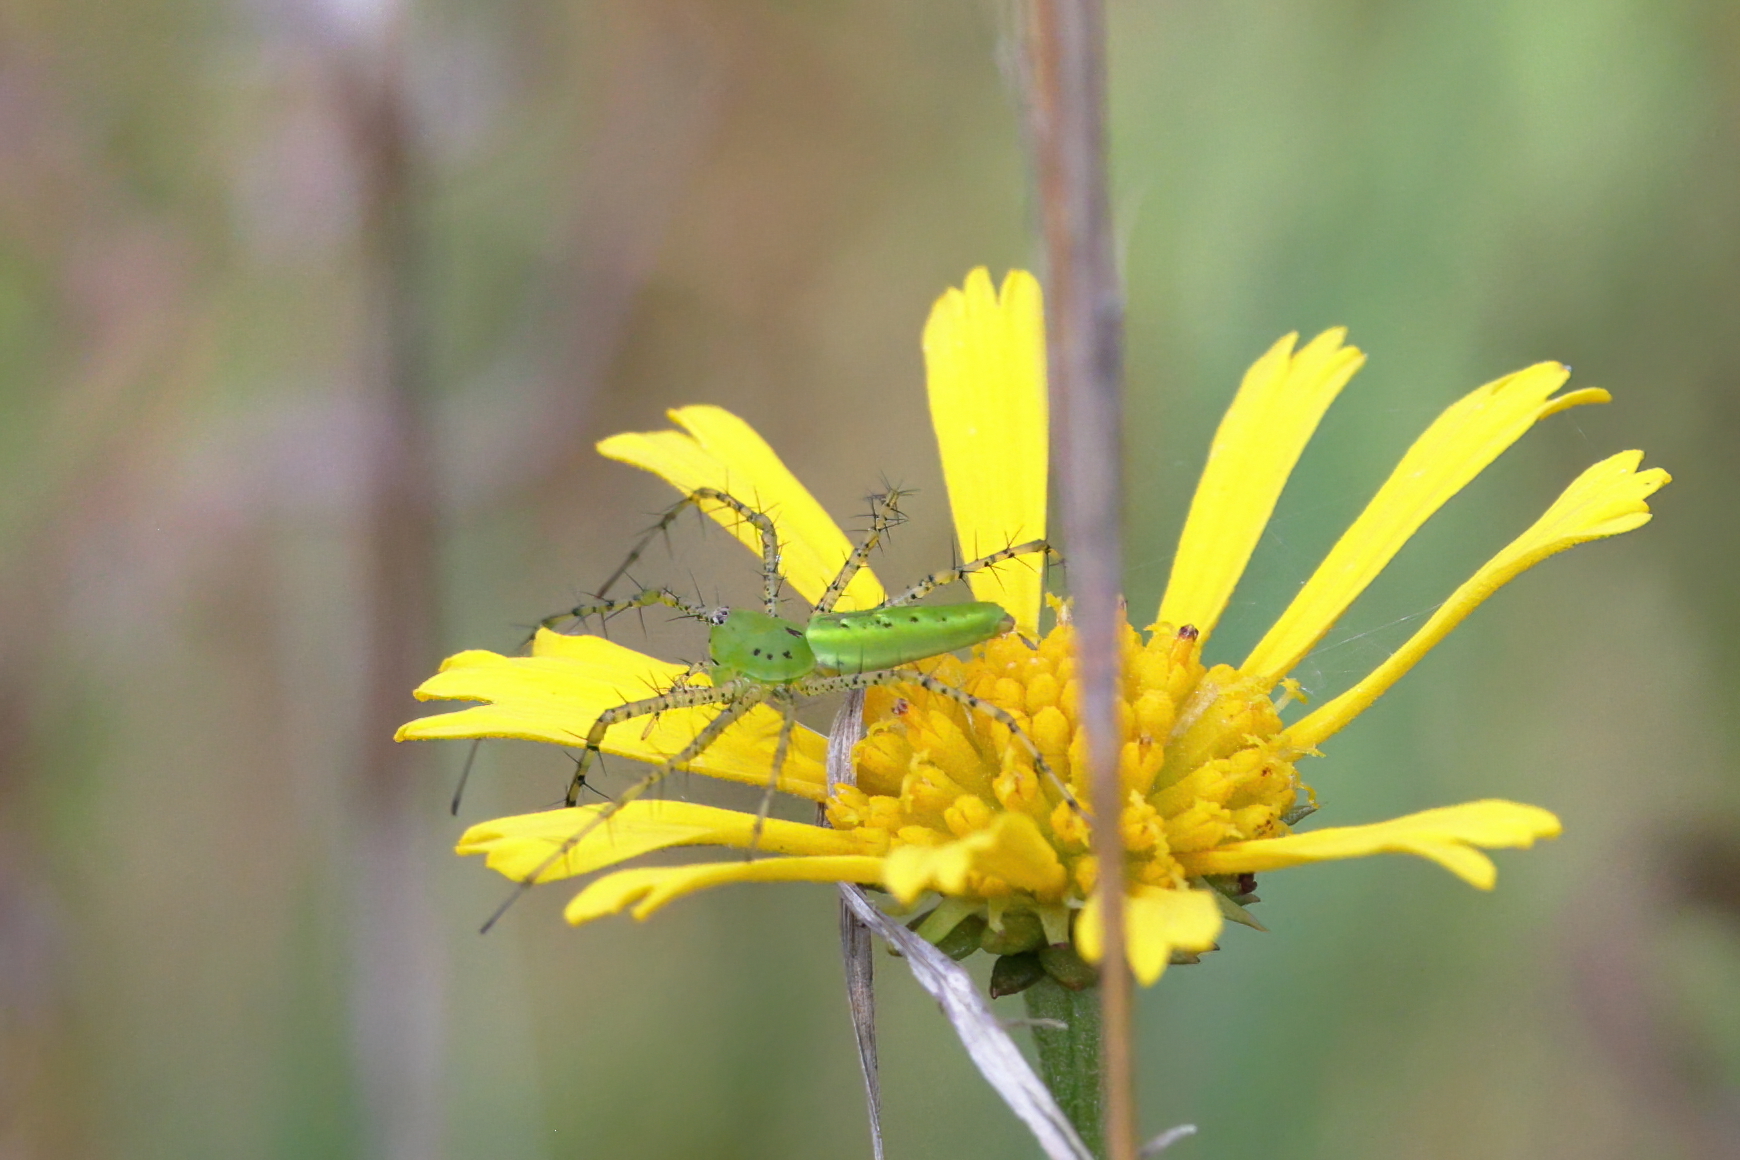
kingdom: Animalia
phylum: Arthropoda
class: Arachnida
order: Araneae
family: Oxyopidae
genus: Peucetia
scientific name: Peucetia viridans
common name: Lynx spiders
